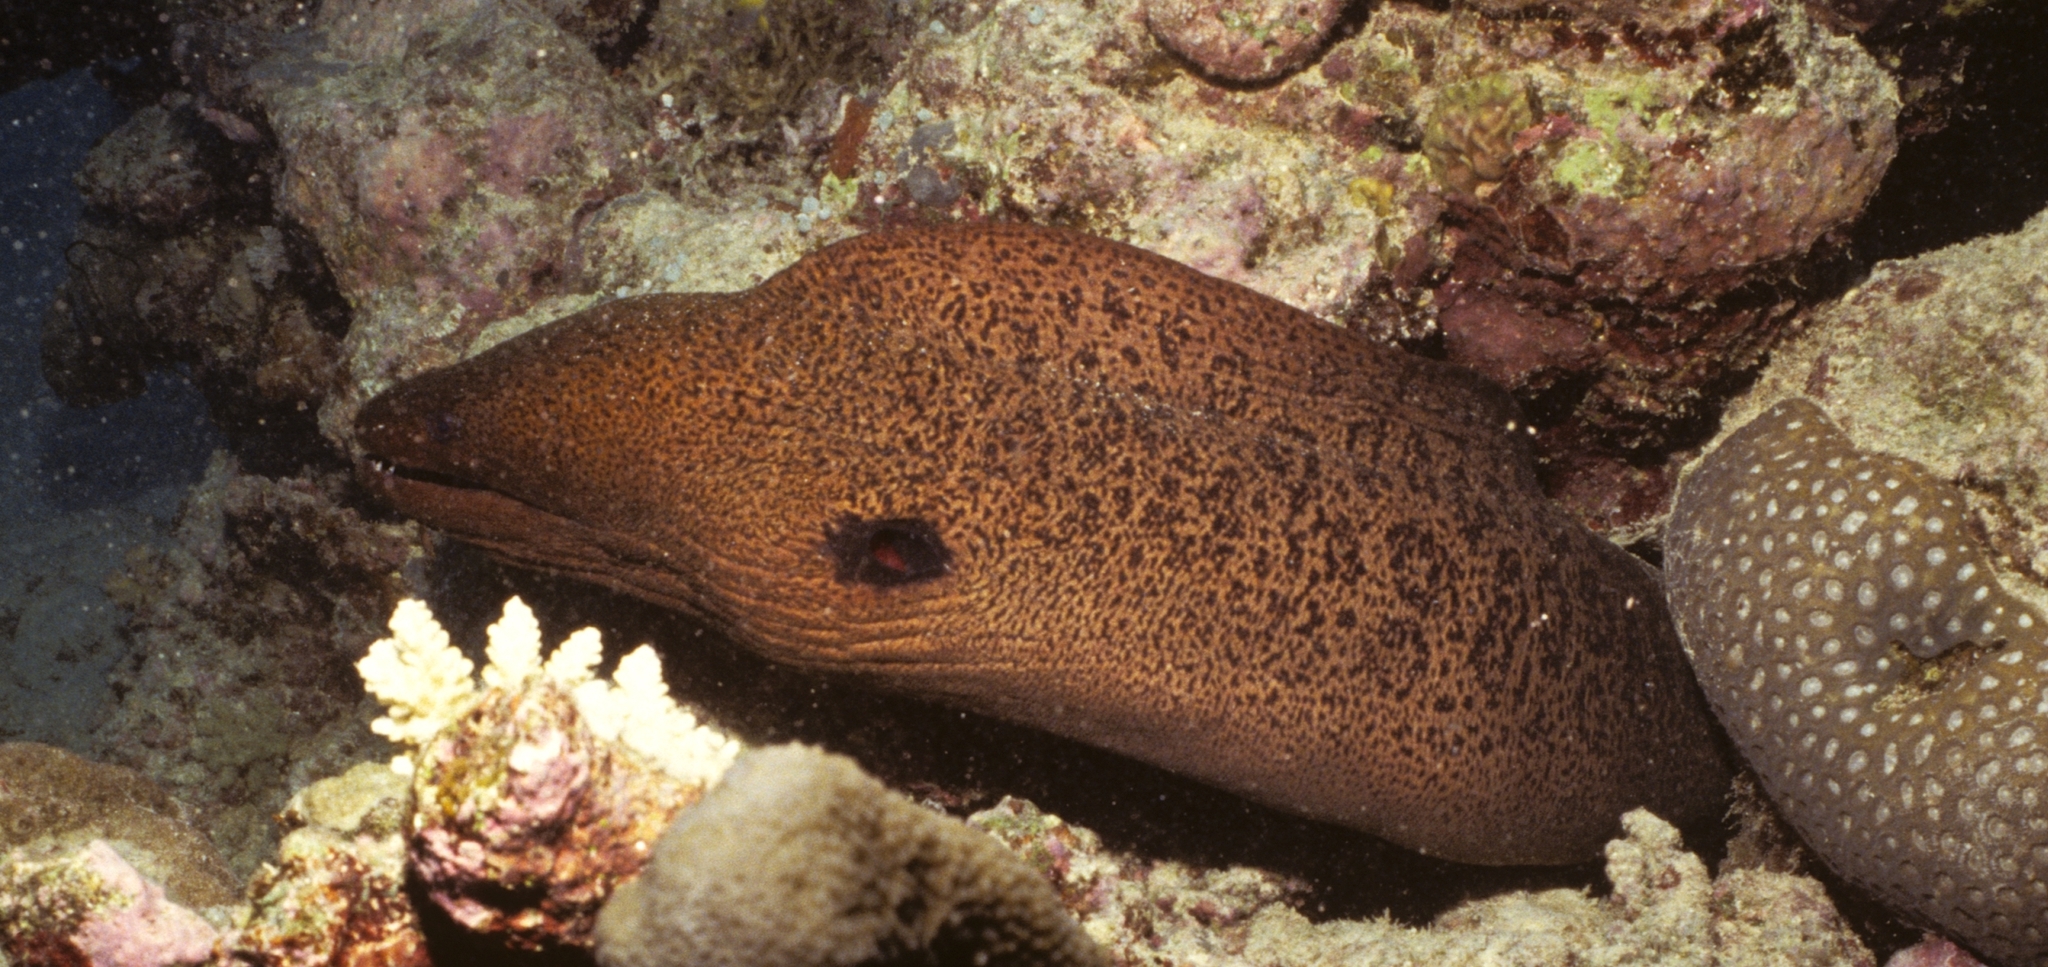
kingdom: Animalia
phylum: Chordata
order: Anguilliformes
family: Muraenidae
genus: Gymnothorax
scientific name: Gymnothorax javanicus
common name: Giant moray
